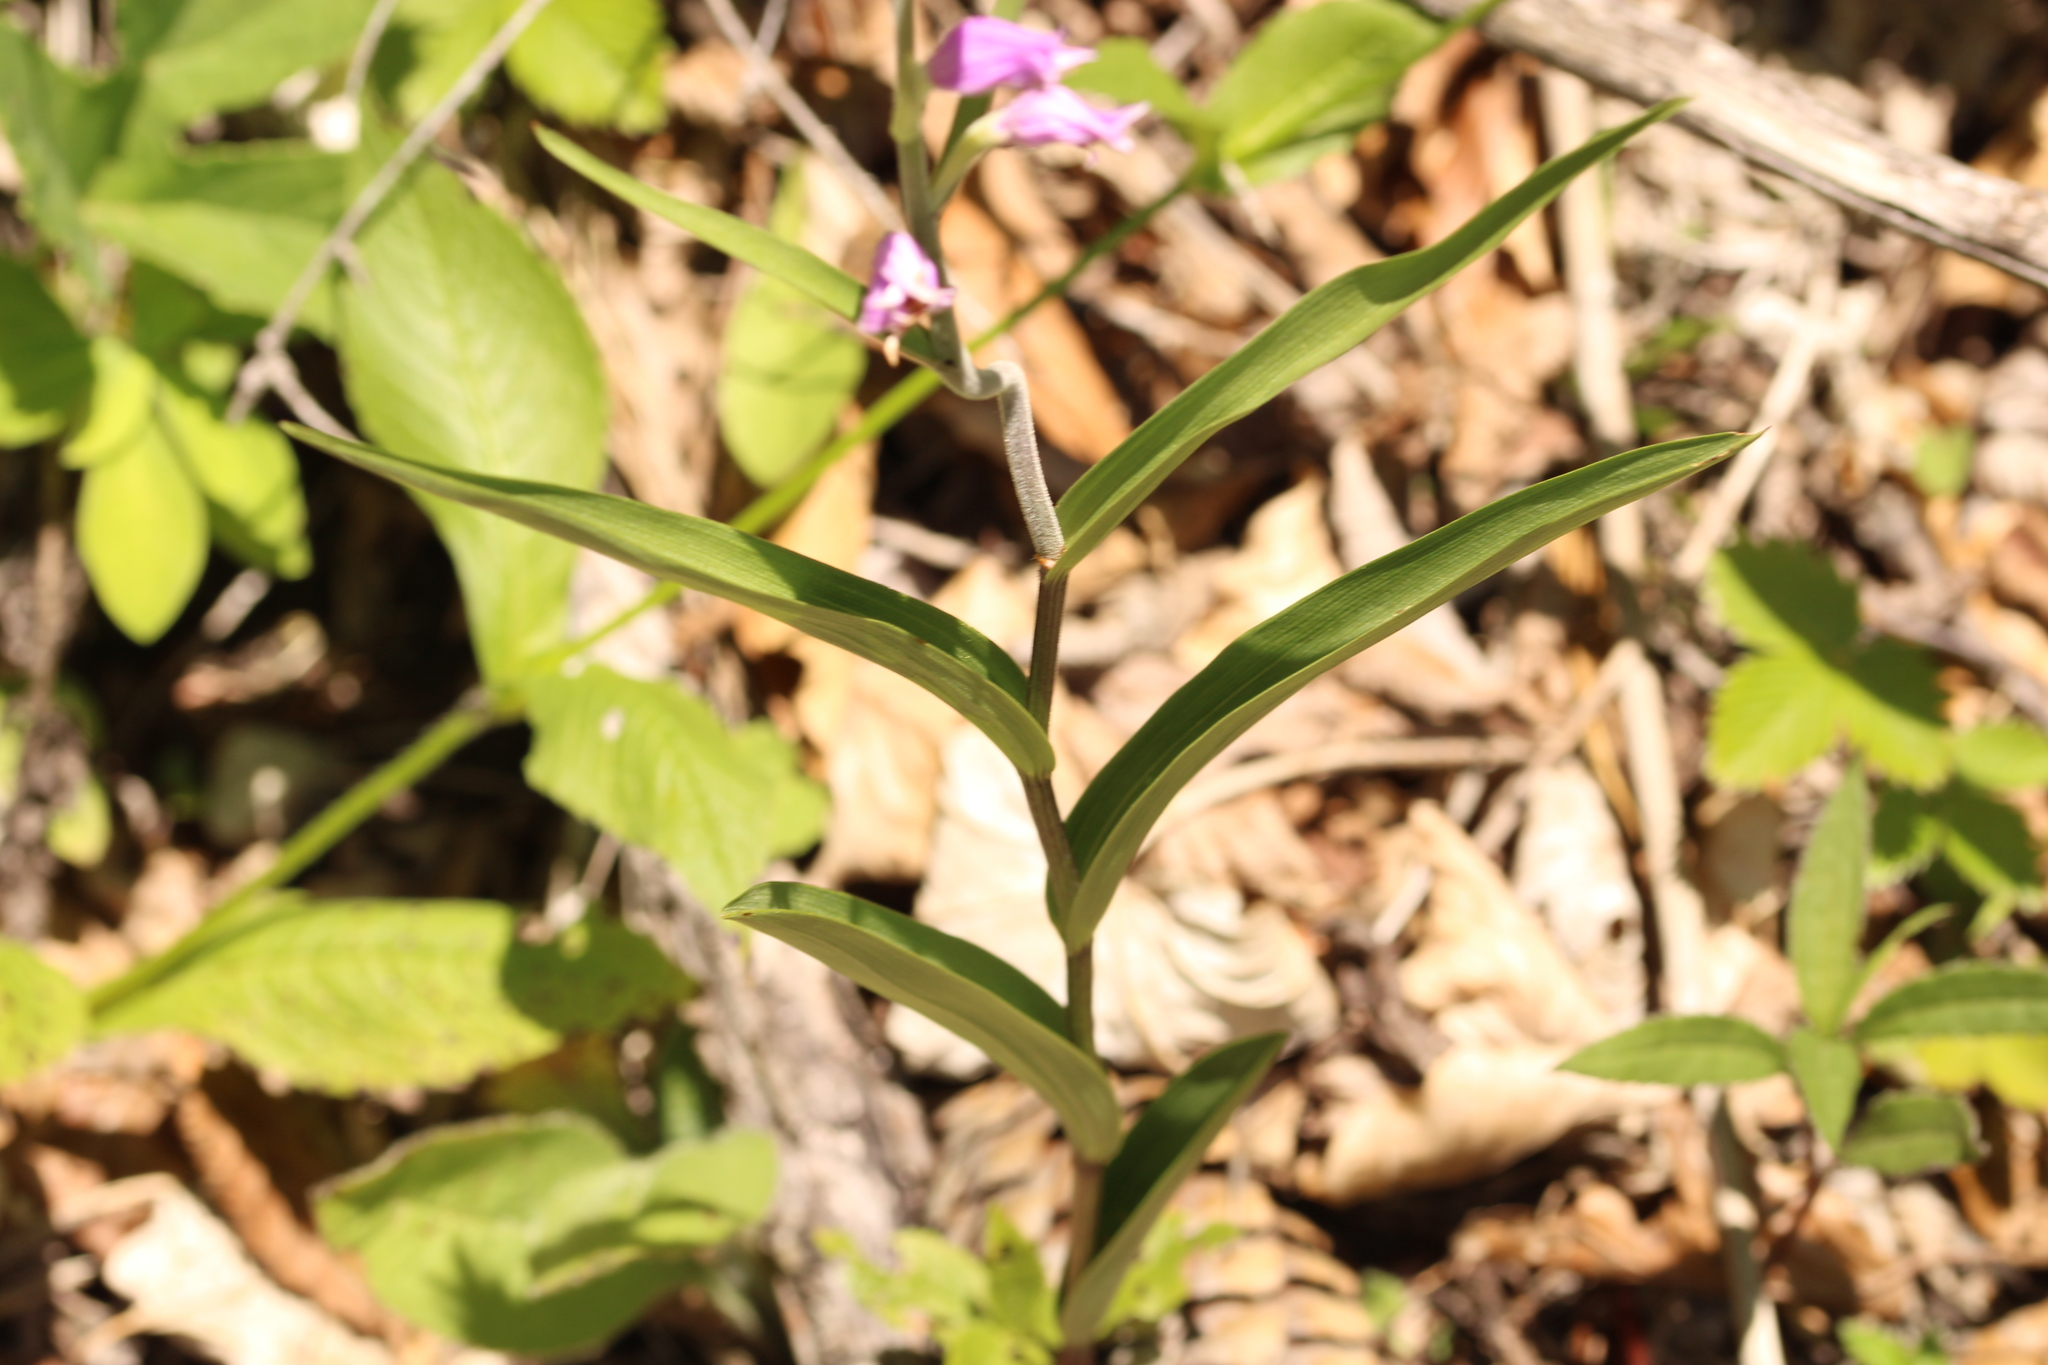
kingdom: Plantae
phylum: Tracheophyta
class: Liliopsida
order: Asparagales
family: Orchidaceae
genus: Cephalanthera
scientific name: Cephalanthera rubra
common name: Red helleborine
